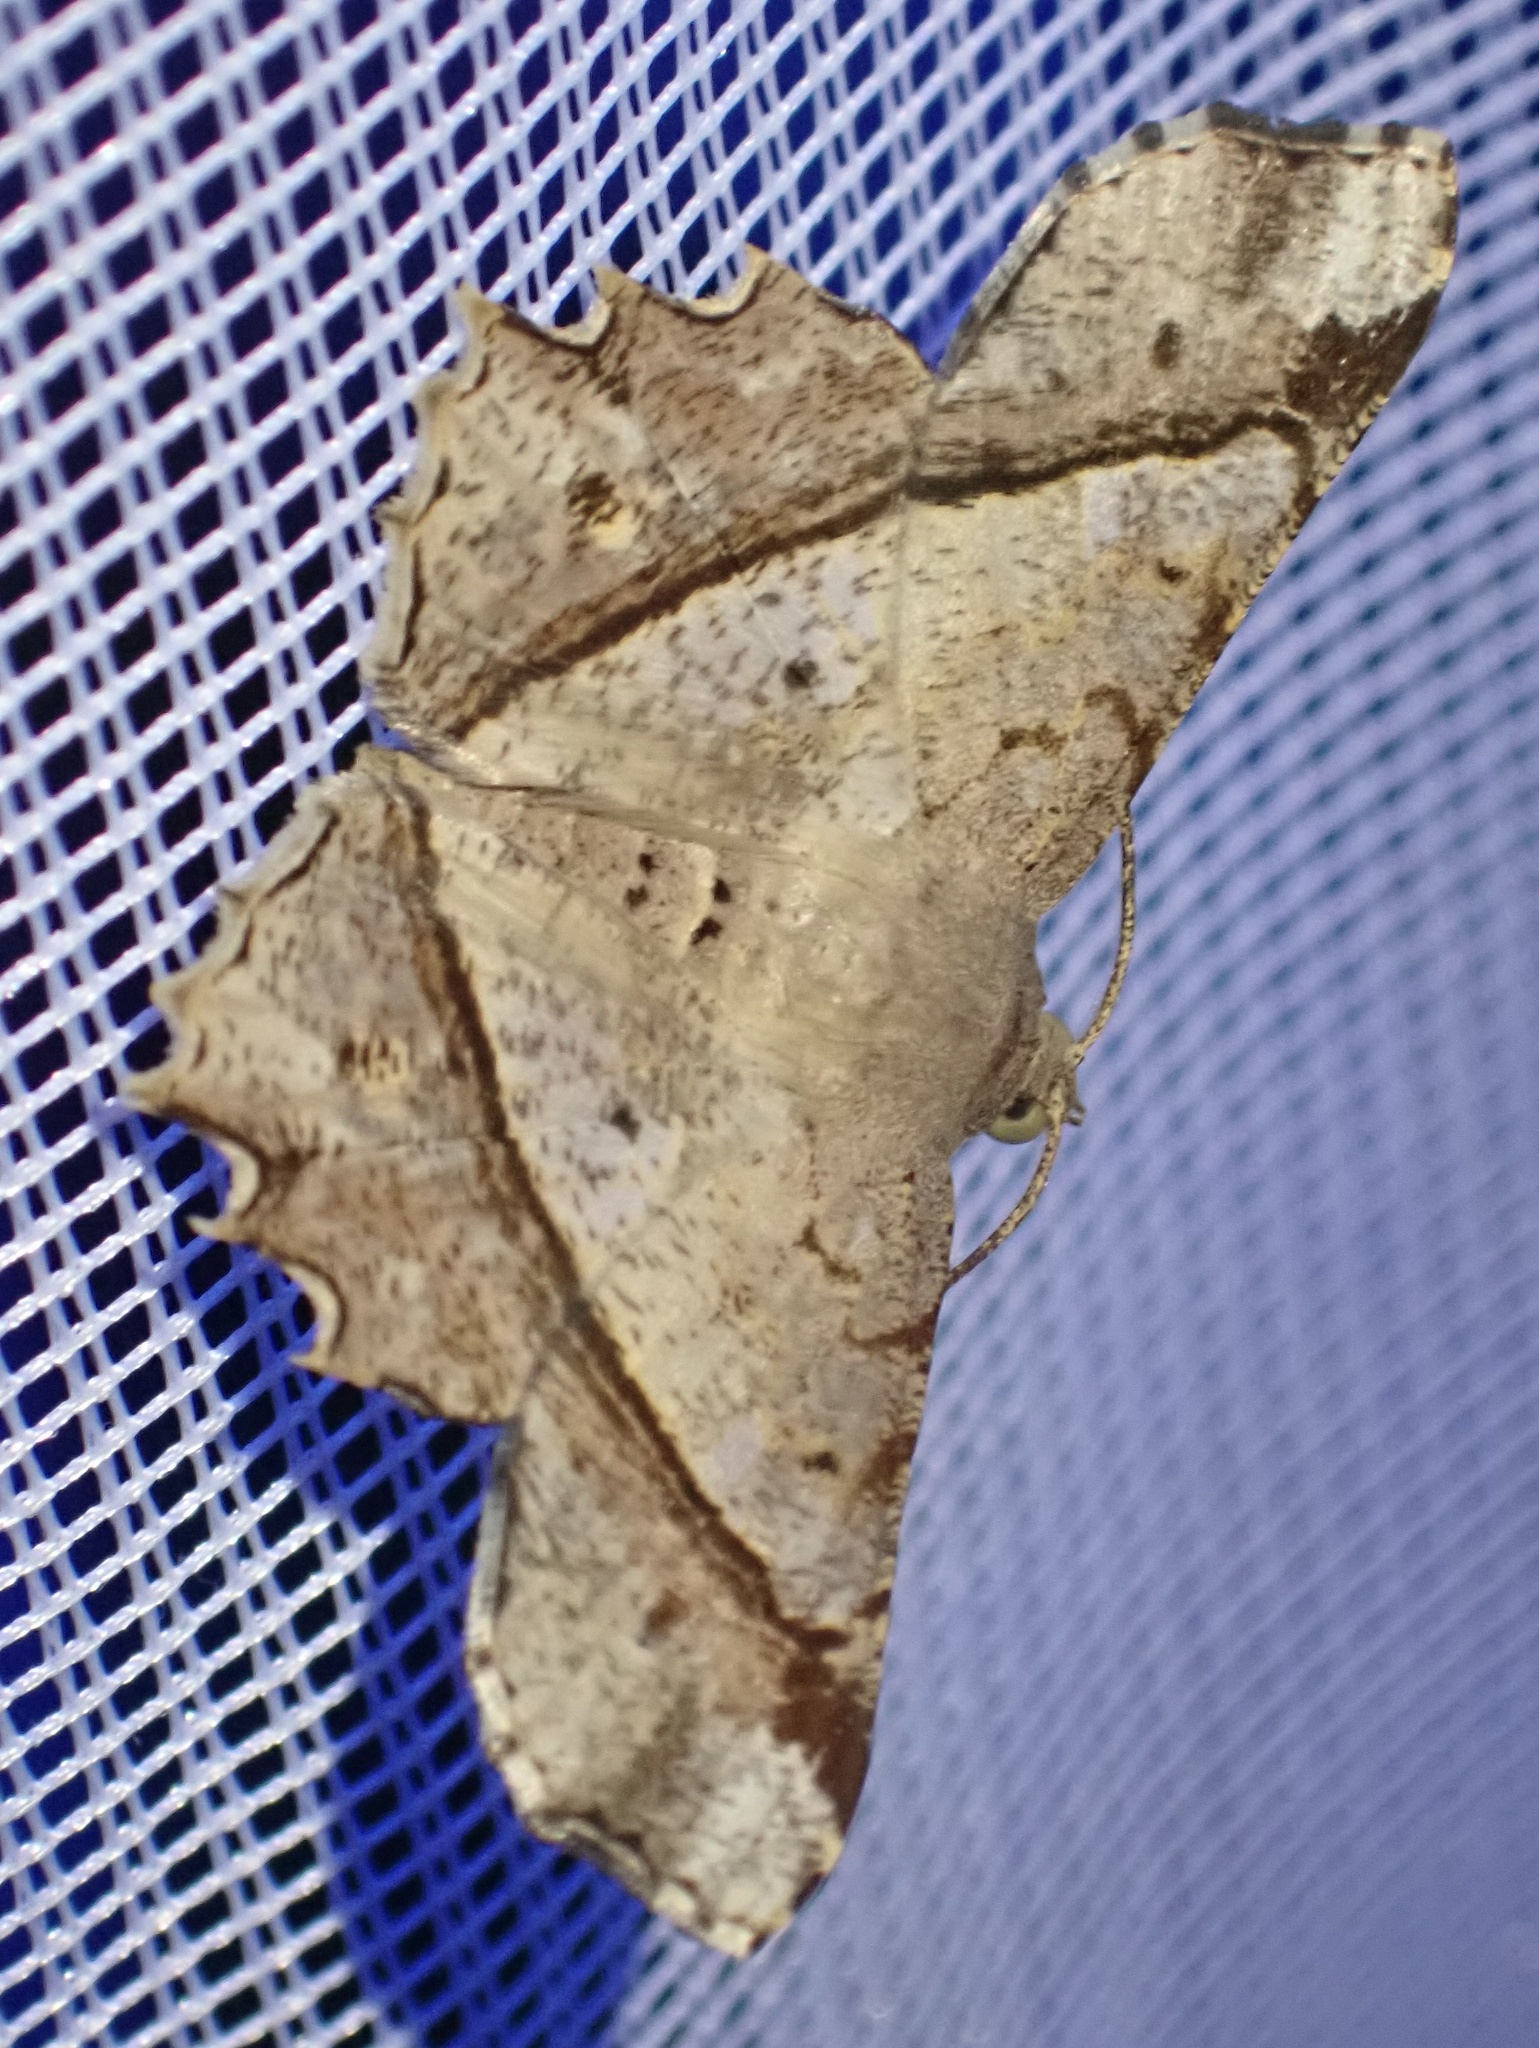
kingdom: Animalia
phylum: Arthropoda
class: Insecta
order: Lepidoptera
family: Geometridae
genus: Chiasmia
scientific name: Chiasmia avitusaria
